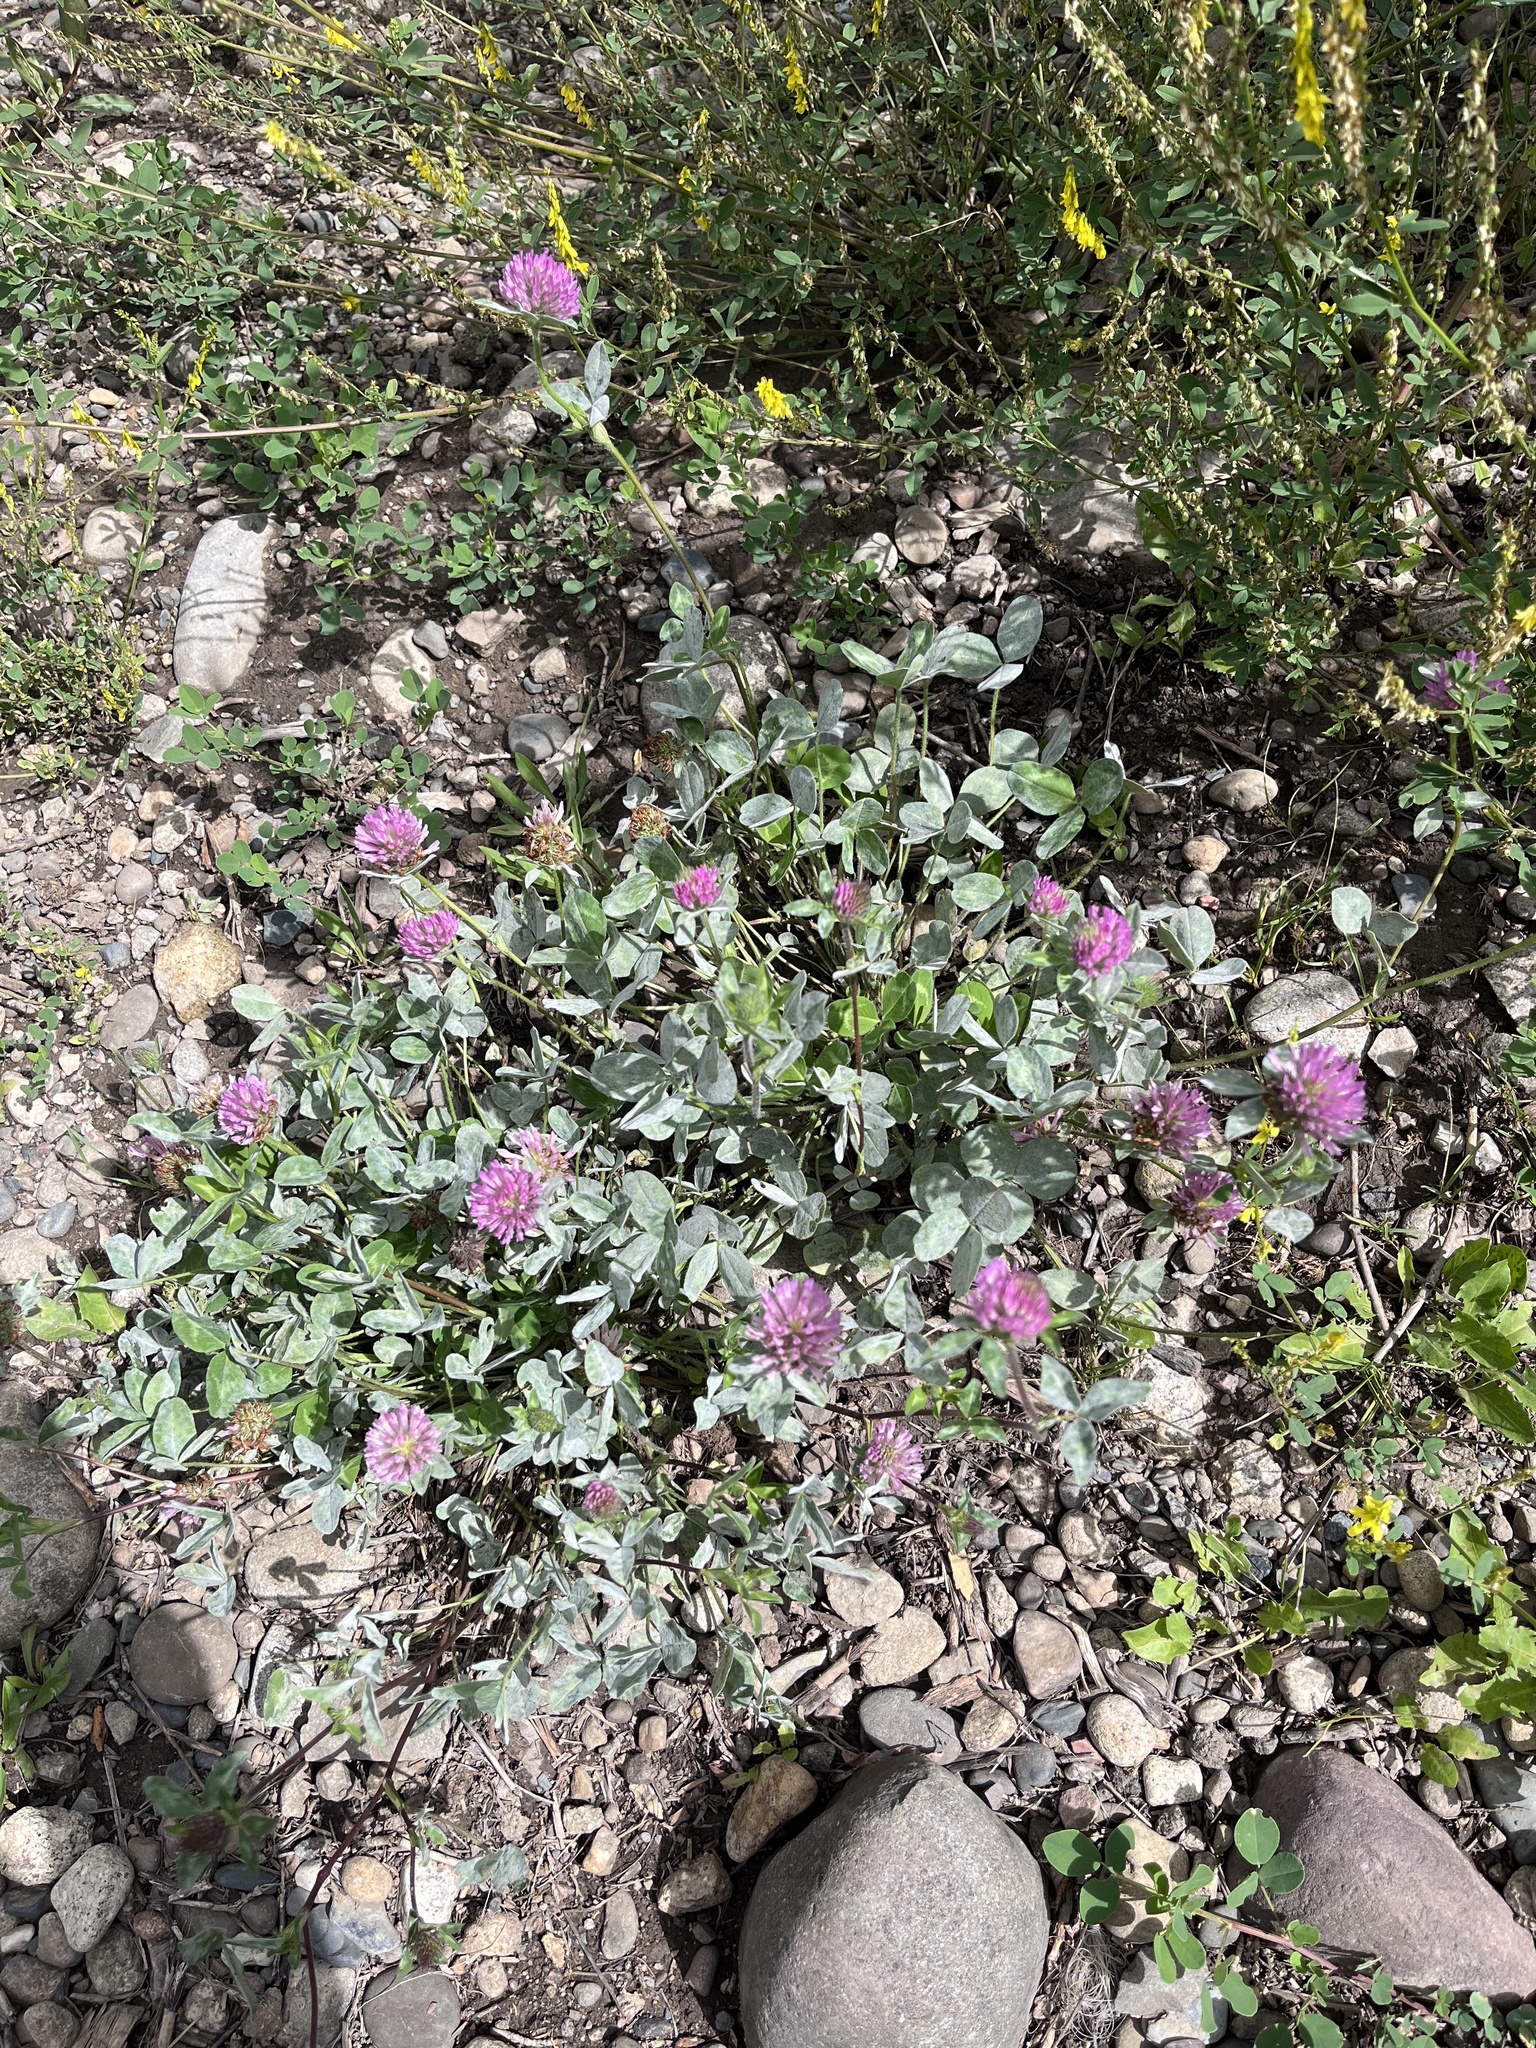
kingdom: Plantae
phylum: Tracheophyta
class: Magnoliopsida
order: Fabales
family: Fabaceae
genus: Trifolium
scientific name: Trifolium pratense
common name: Red clover
